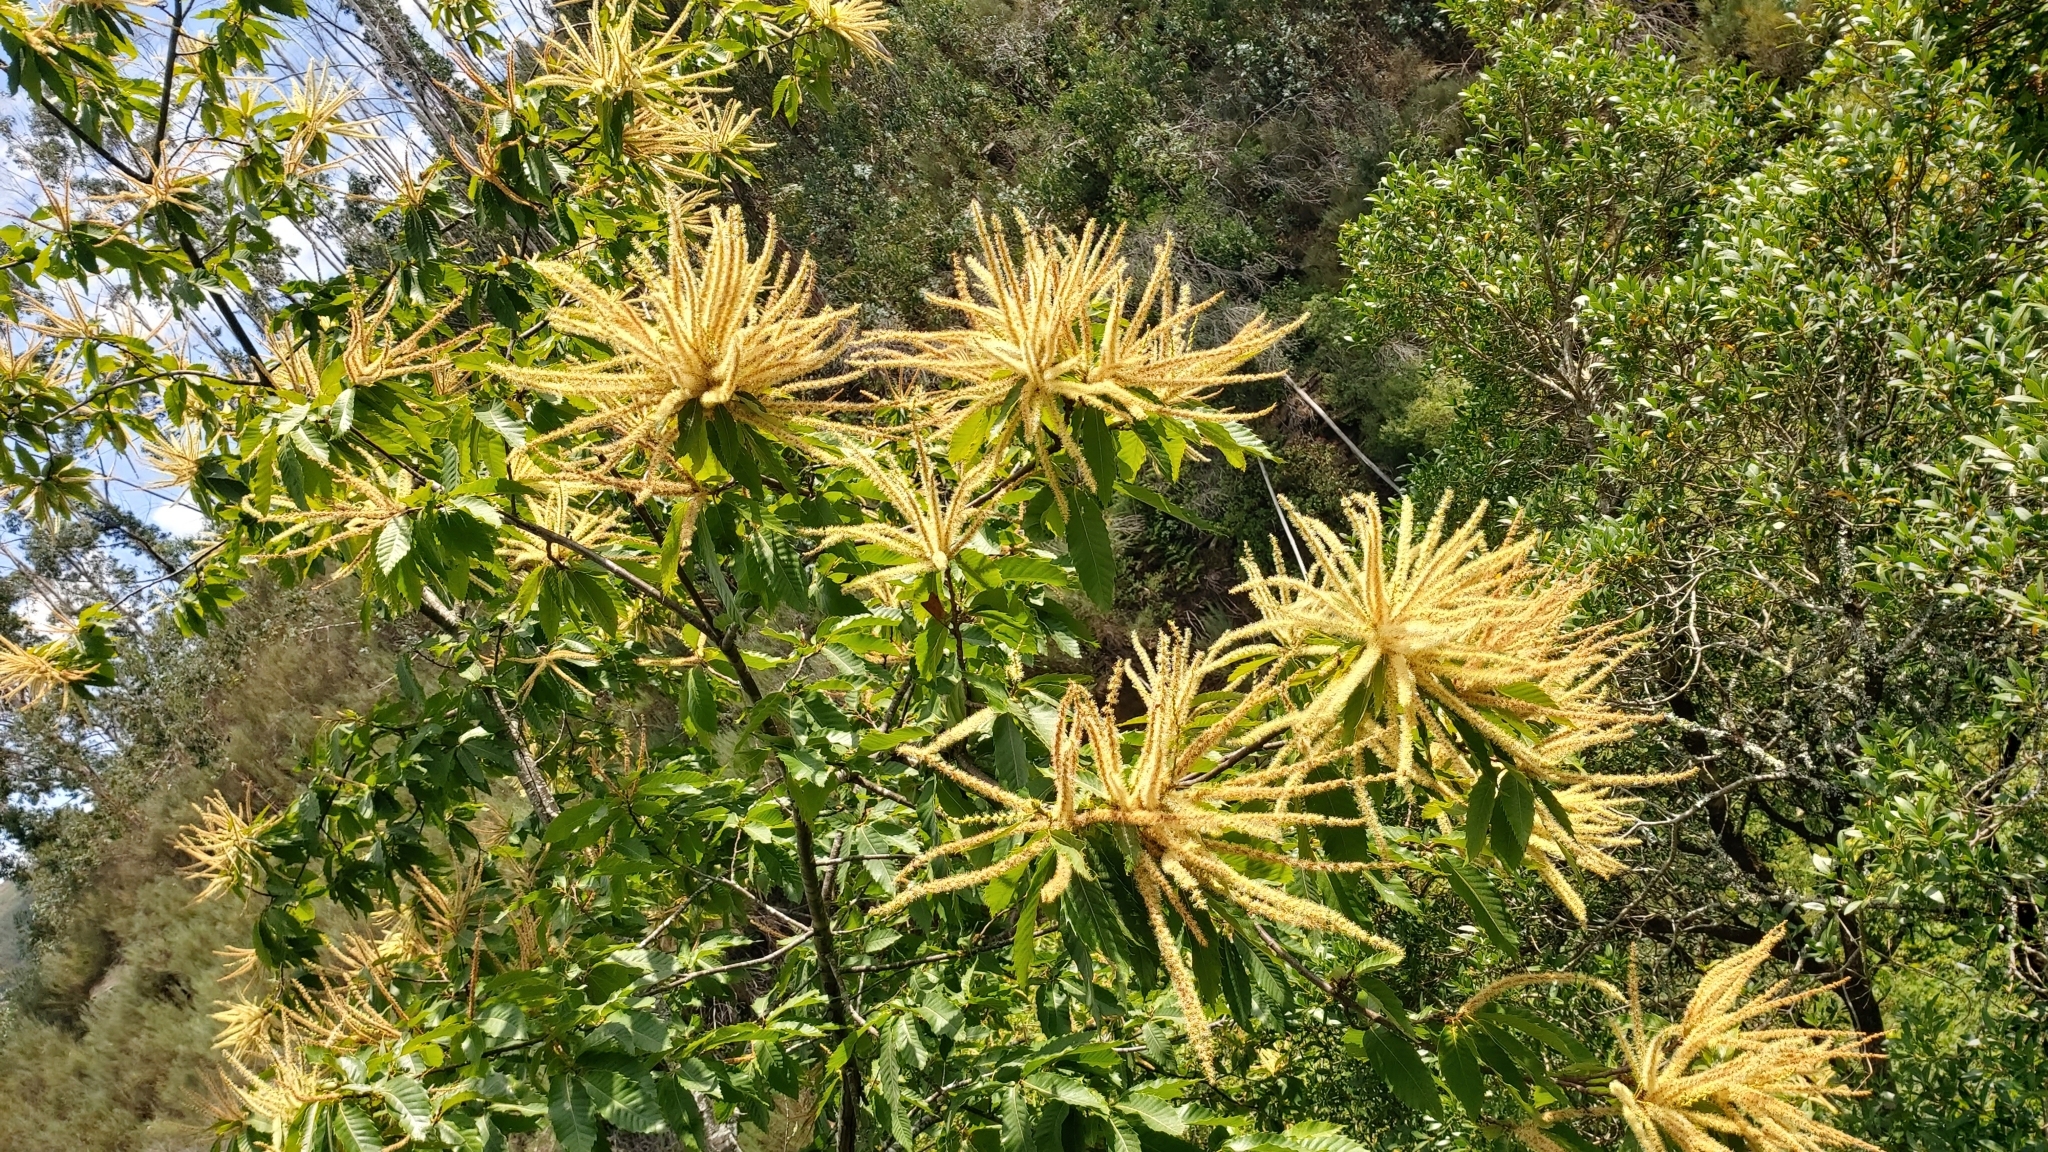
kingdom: Plantae
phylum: Tracheophyta
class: Magnoliopsida
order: Fagales
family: Fagaceae
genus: Castanea
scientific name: Castanea sativa
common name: Sweet chestnut
